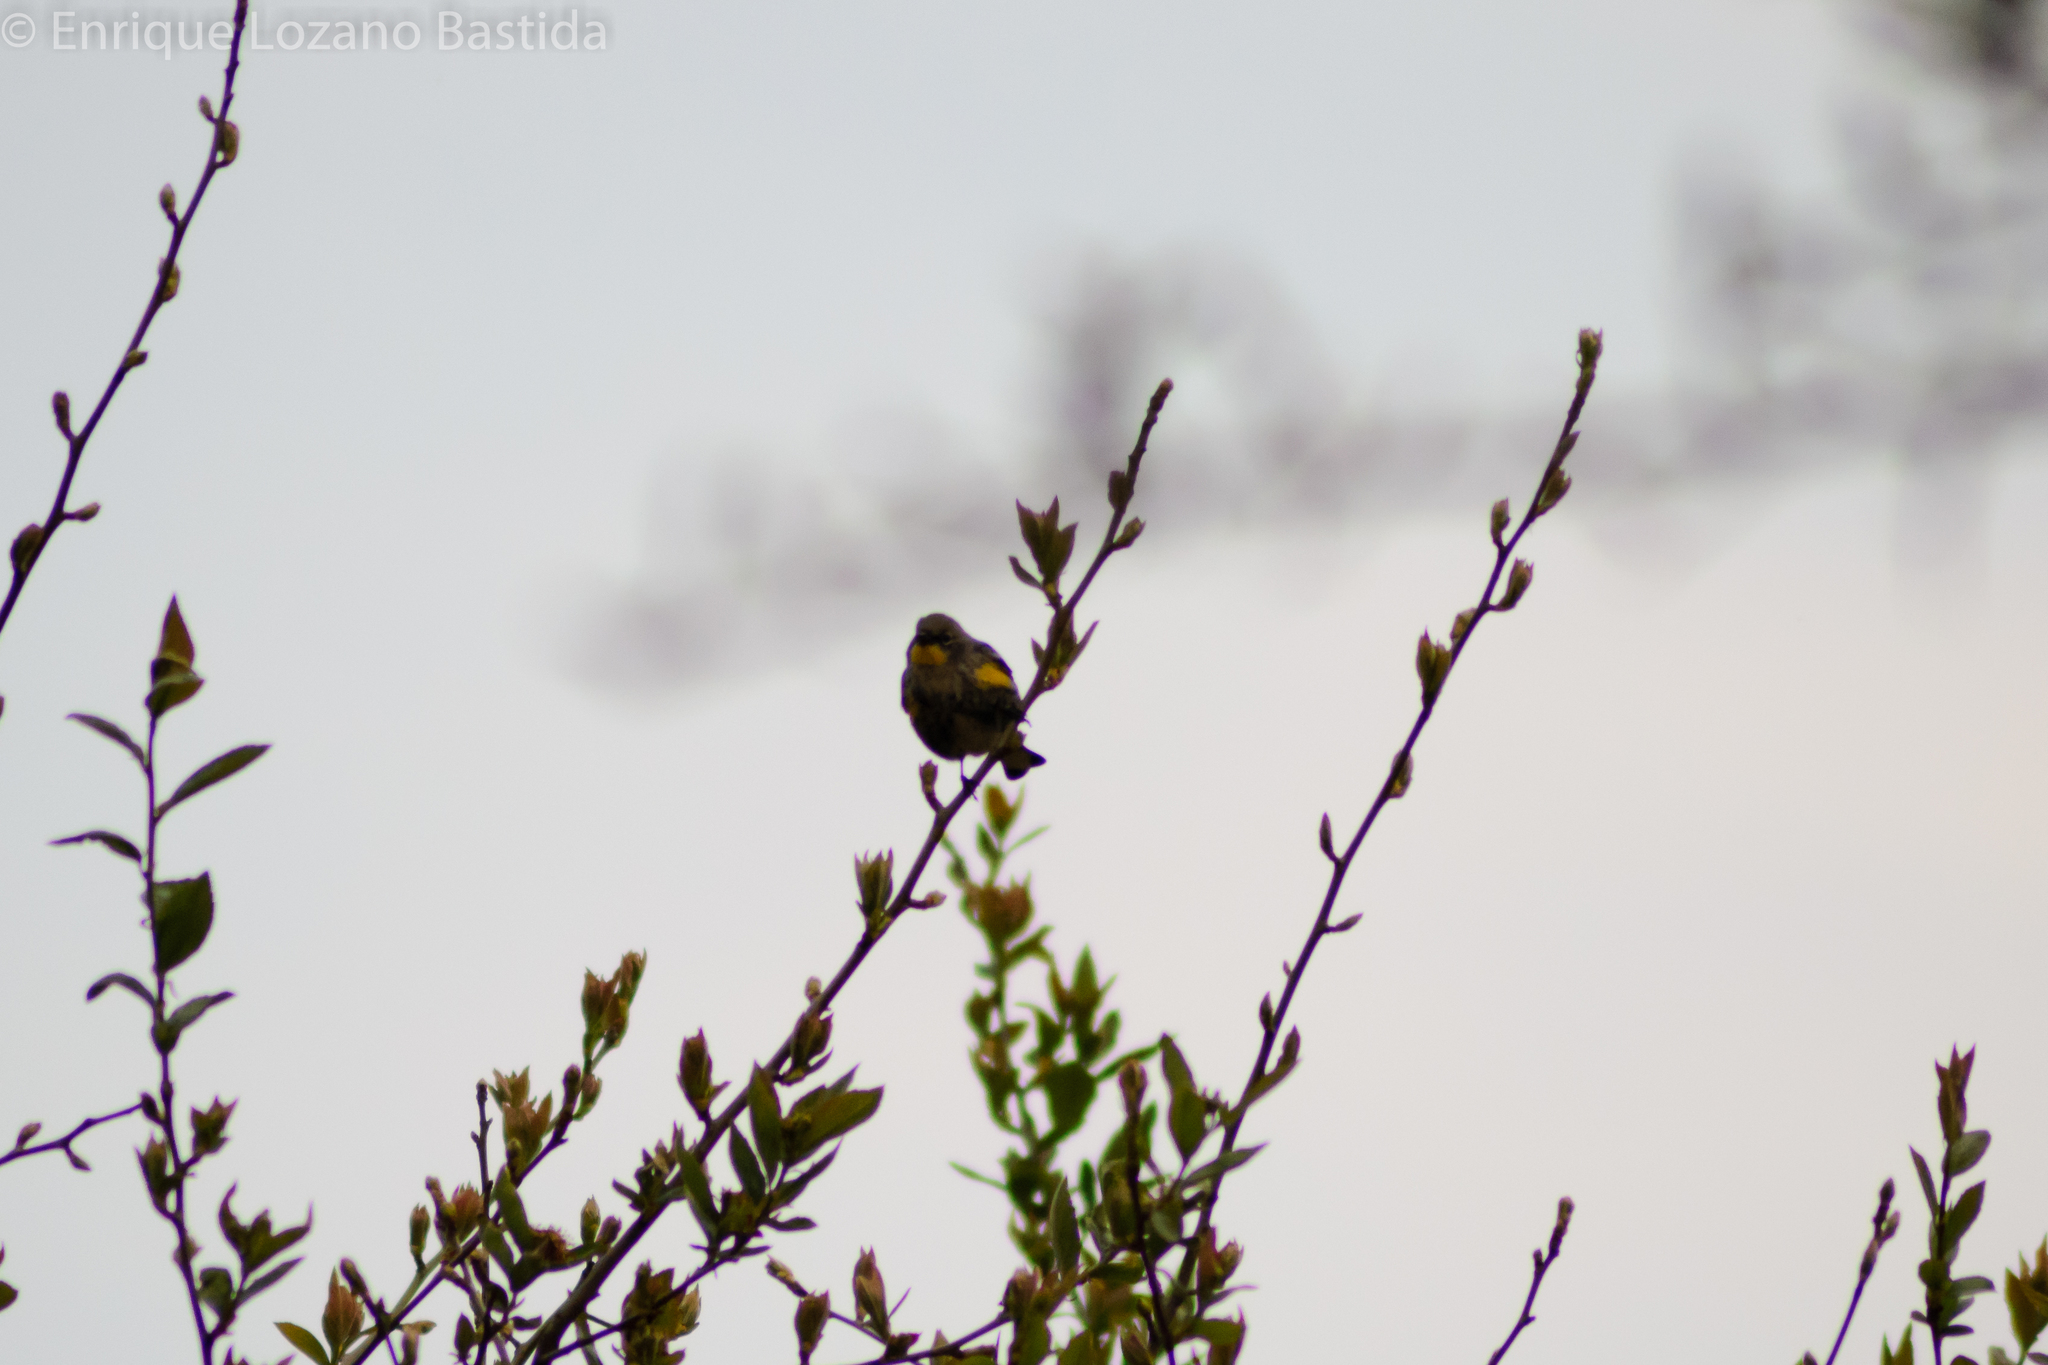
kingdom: Animalia
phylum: Chordata
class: Aves
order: Passeriformes
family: Parulidae
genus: Setophaga
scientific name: Setophaga coronata
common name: Myrtle warbler
